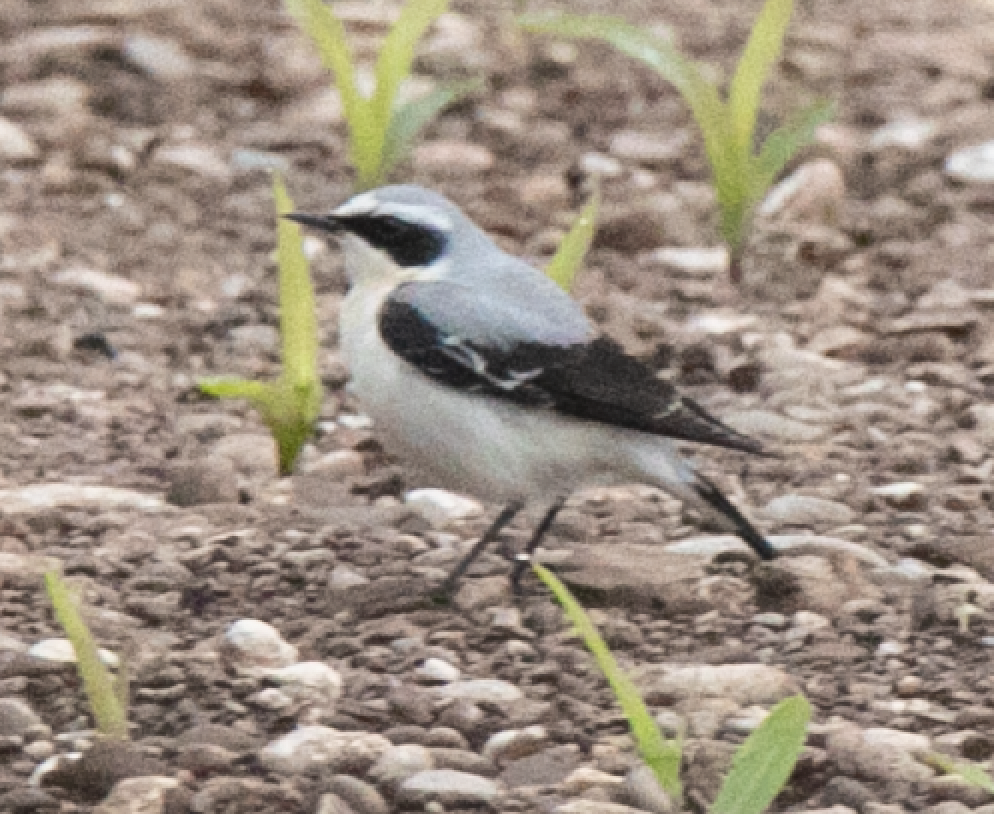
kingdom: Animalia
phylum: Chordata
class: Aves
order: Passeriformes
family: Muscicapidae
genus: Oenanthe
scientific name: Oenanthe oenanthe
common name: Northern wheatear
